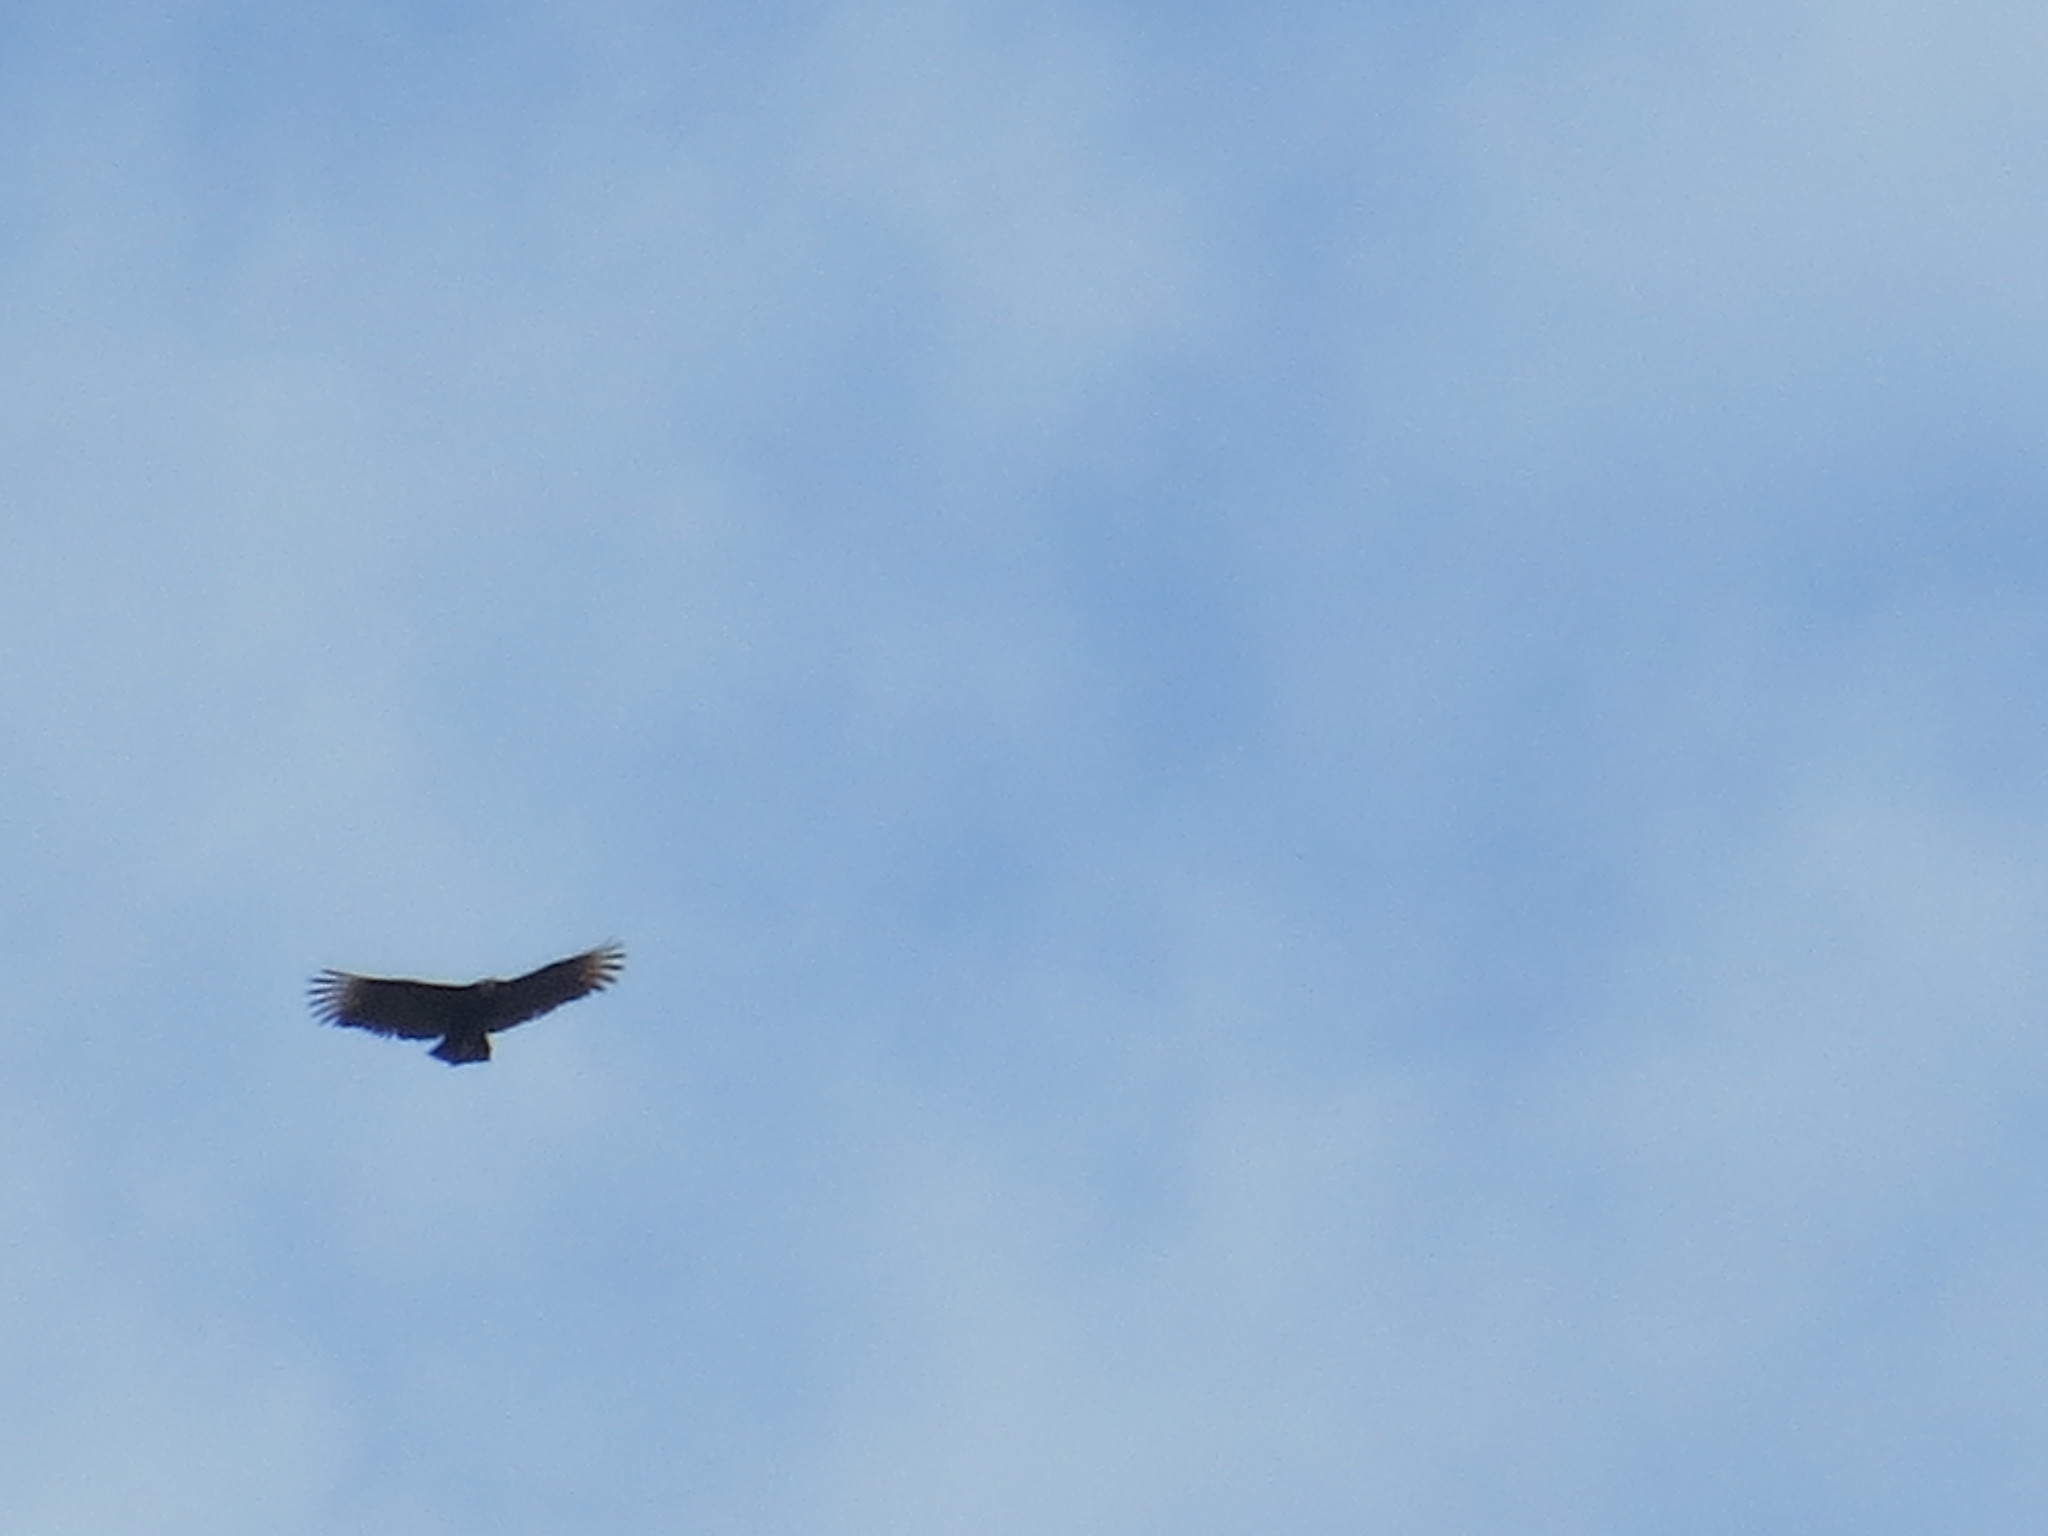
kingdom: Animalia
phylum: Chordata
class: Aves
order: Accipitriformes
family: Cathartidae
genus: Coragyps
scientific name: Coragyps atratus
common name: Black vulture
